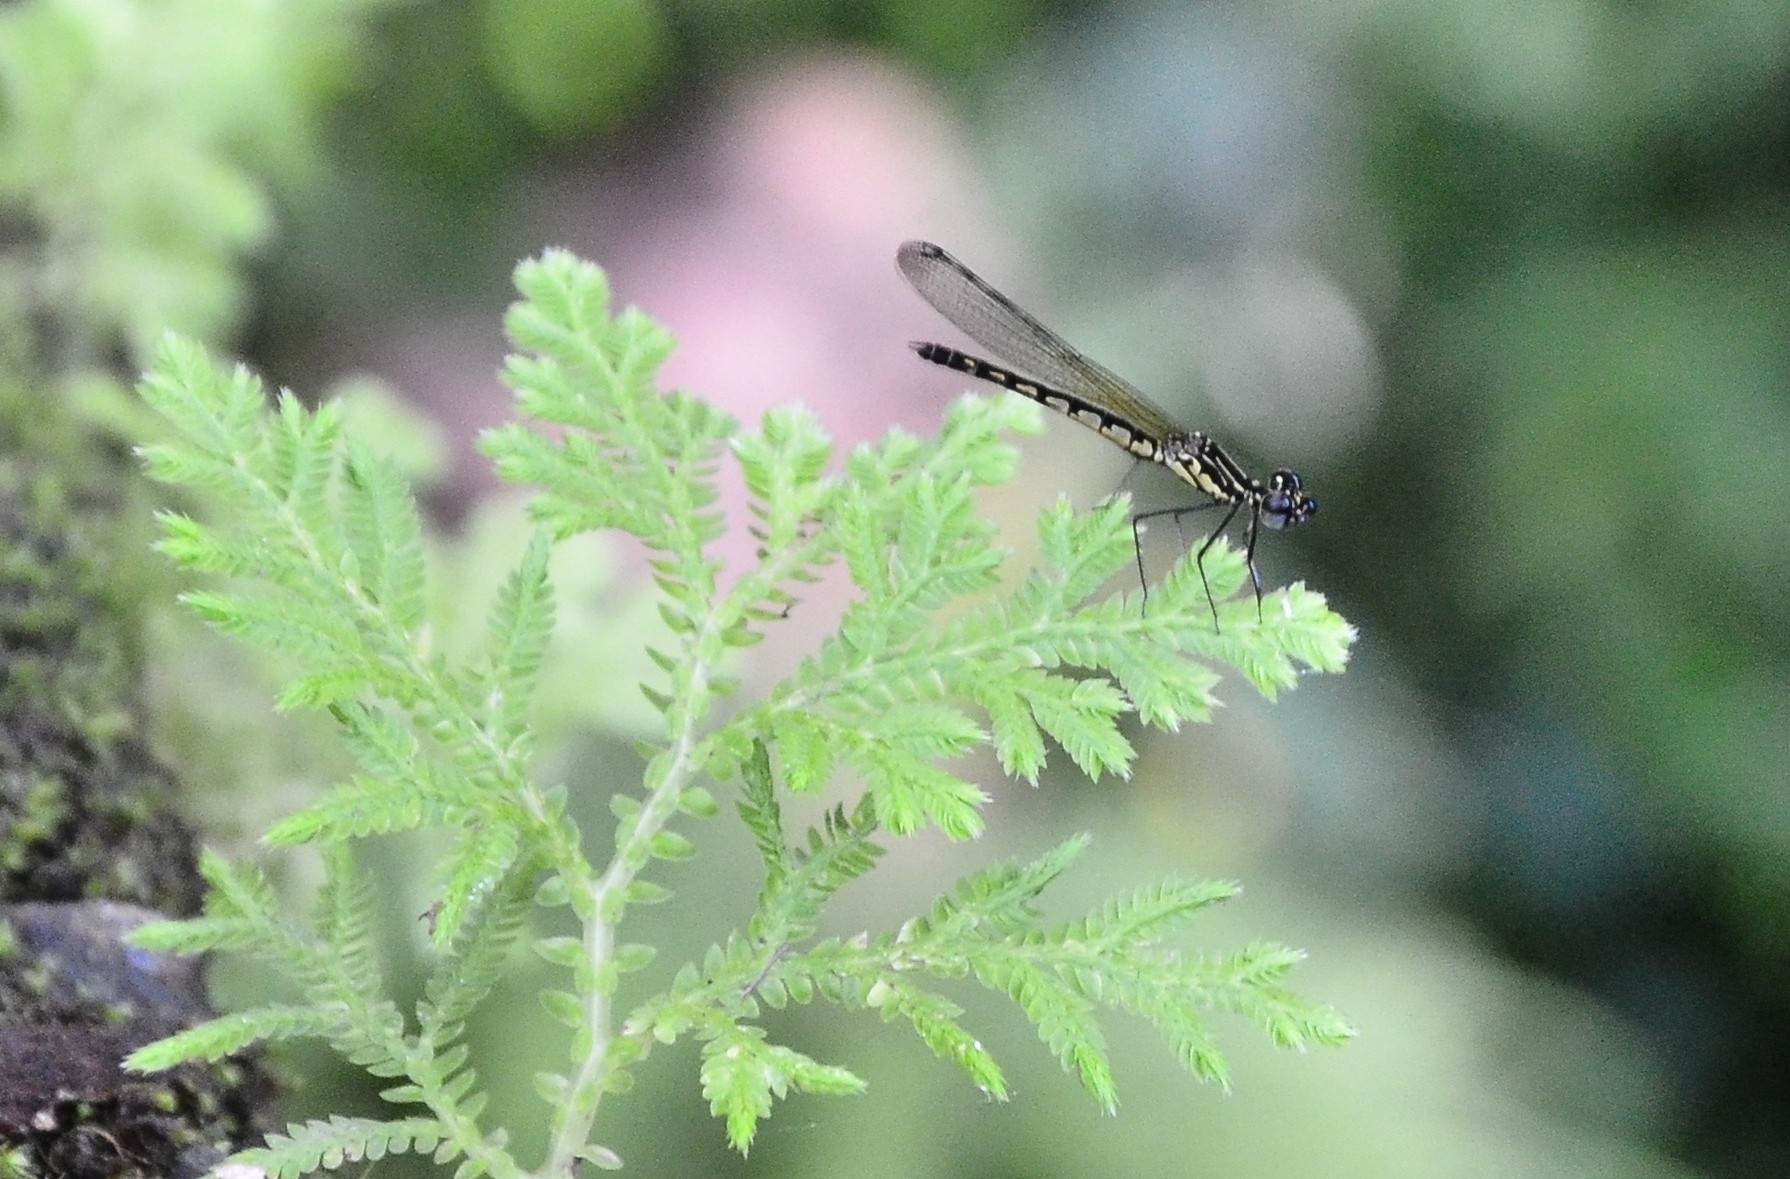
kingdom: Animalia
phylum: Arthropoda
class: Insecta
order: Odonata
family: Chlorocyphidae
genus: Libellago
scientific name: Libellago indica
